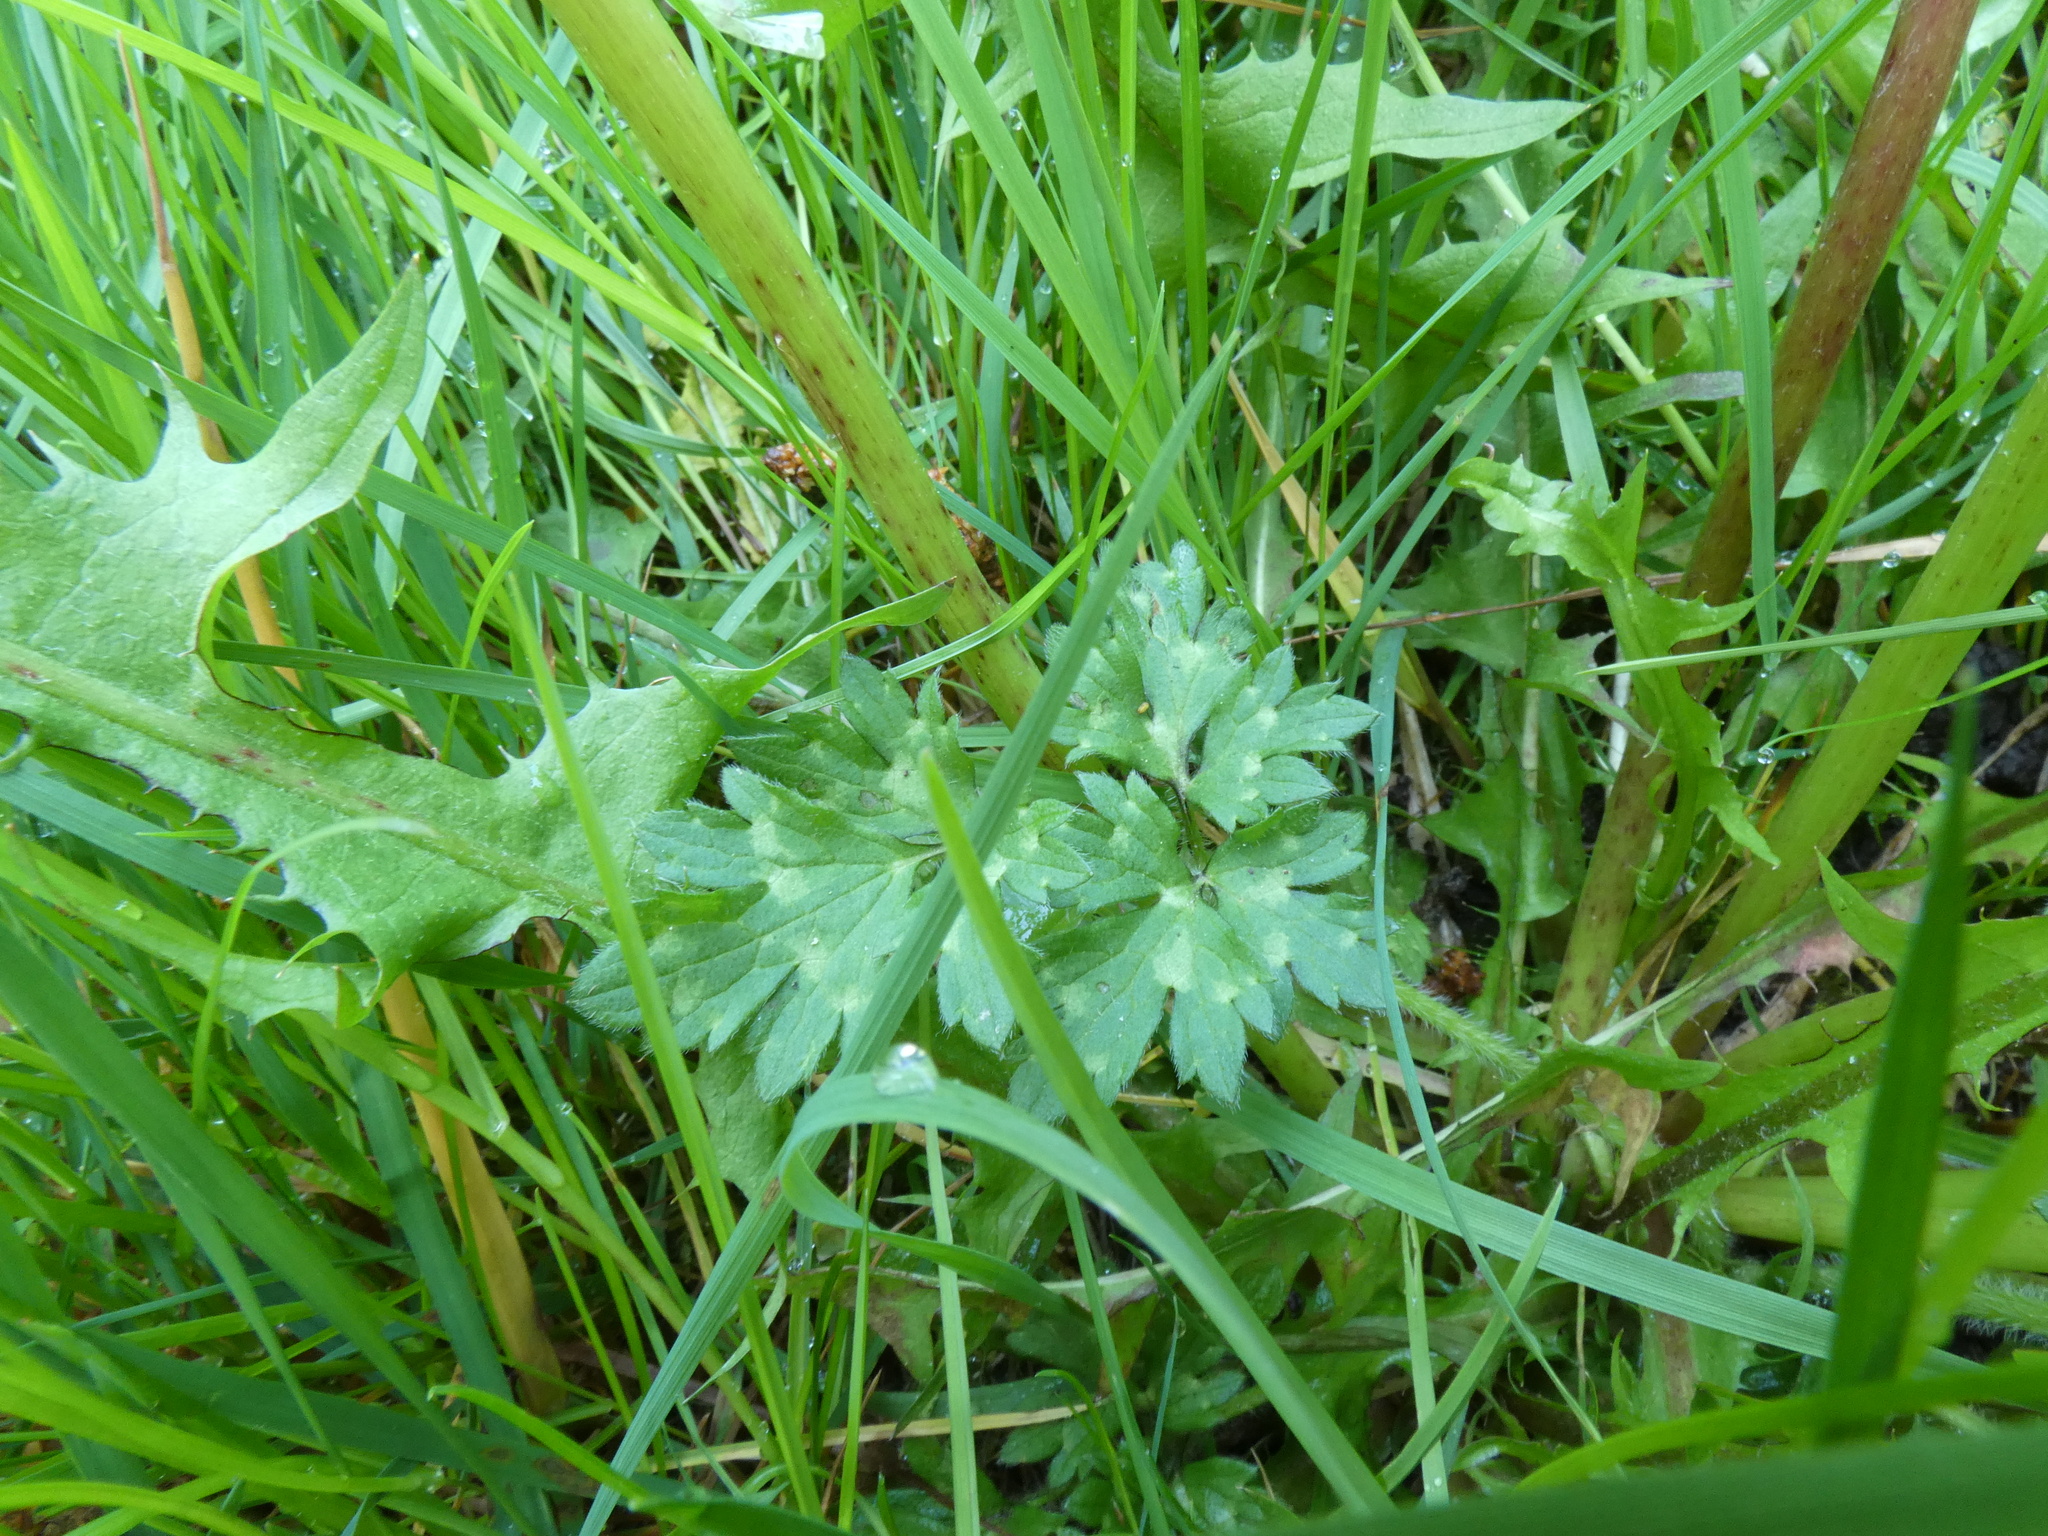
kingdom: Plantae
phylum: Tracheophyta
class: Magnoliopsida
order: Ranunculales
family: Ranunculaceae
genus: Ranunculus
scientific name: Ranunculus repens
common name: Creeping buttercup
